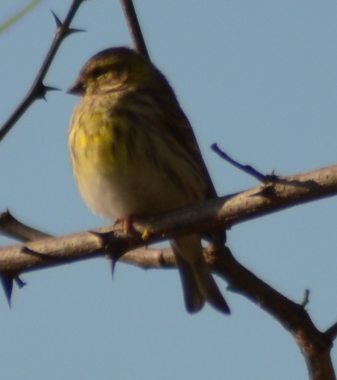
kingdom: Animalia
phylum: Chordata
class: Aves
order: Passeriformes
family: Fringillidae
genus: Serinus
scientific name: Serinus serinus
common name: European serin
